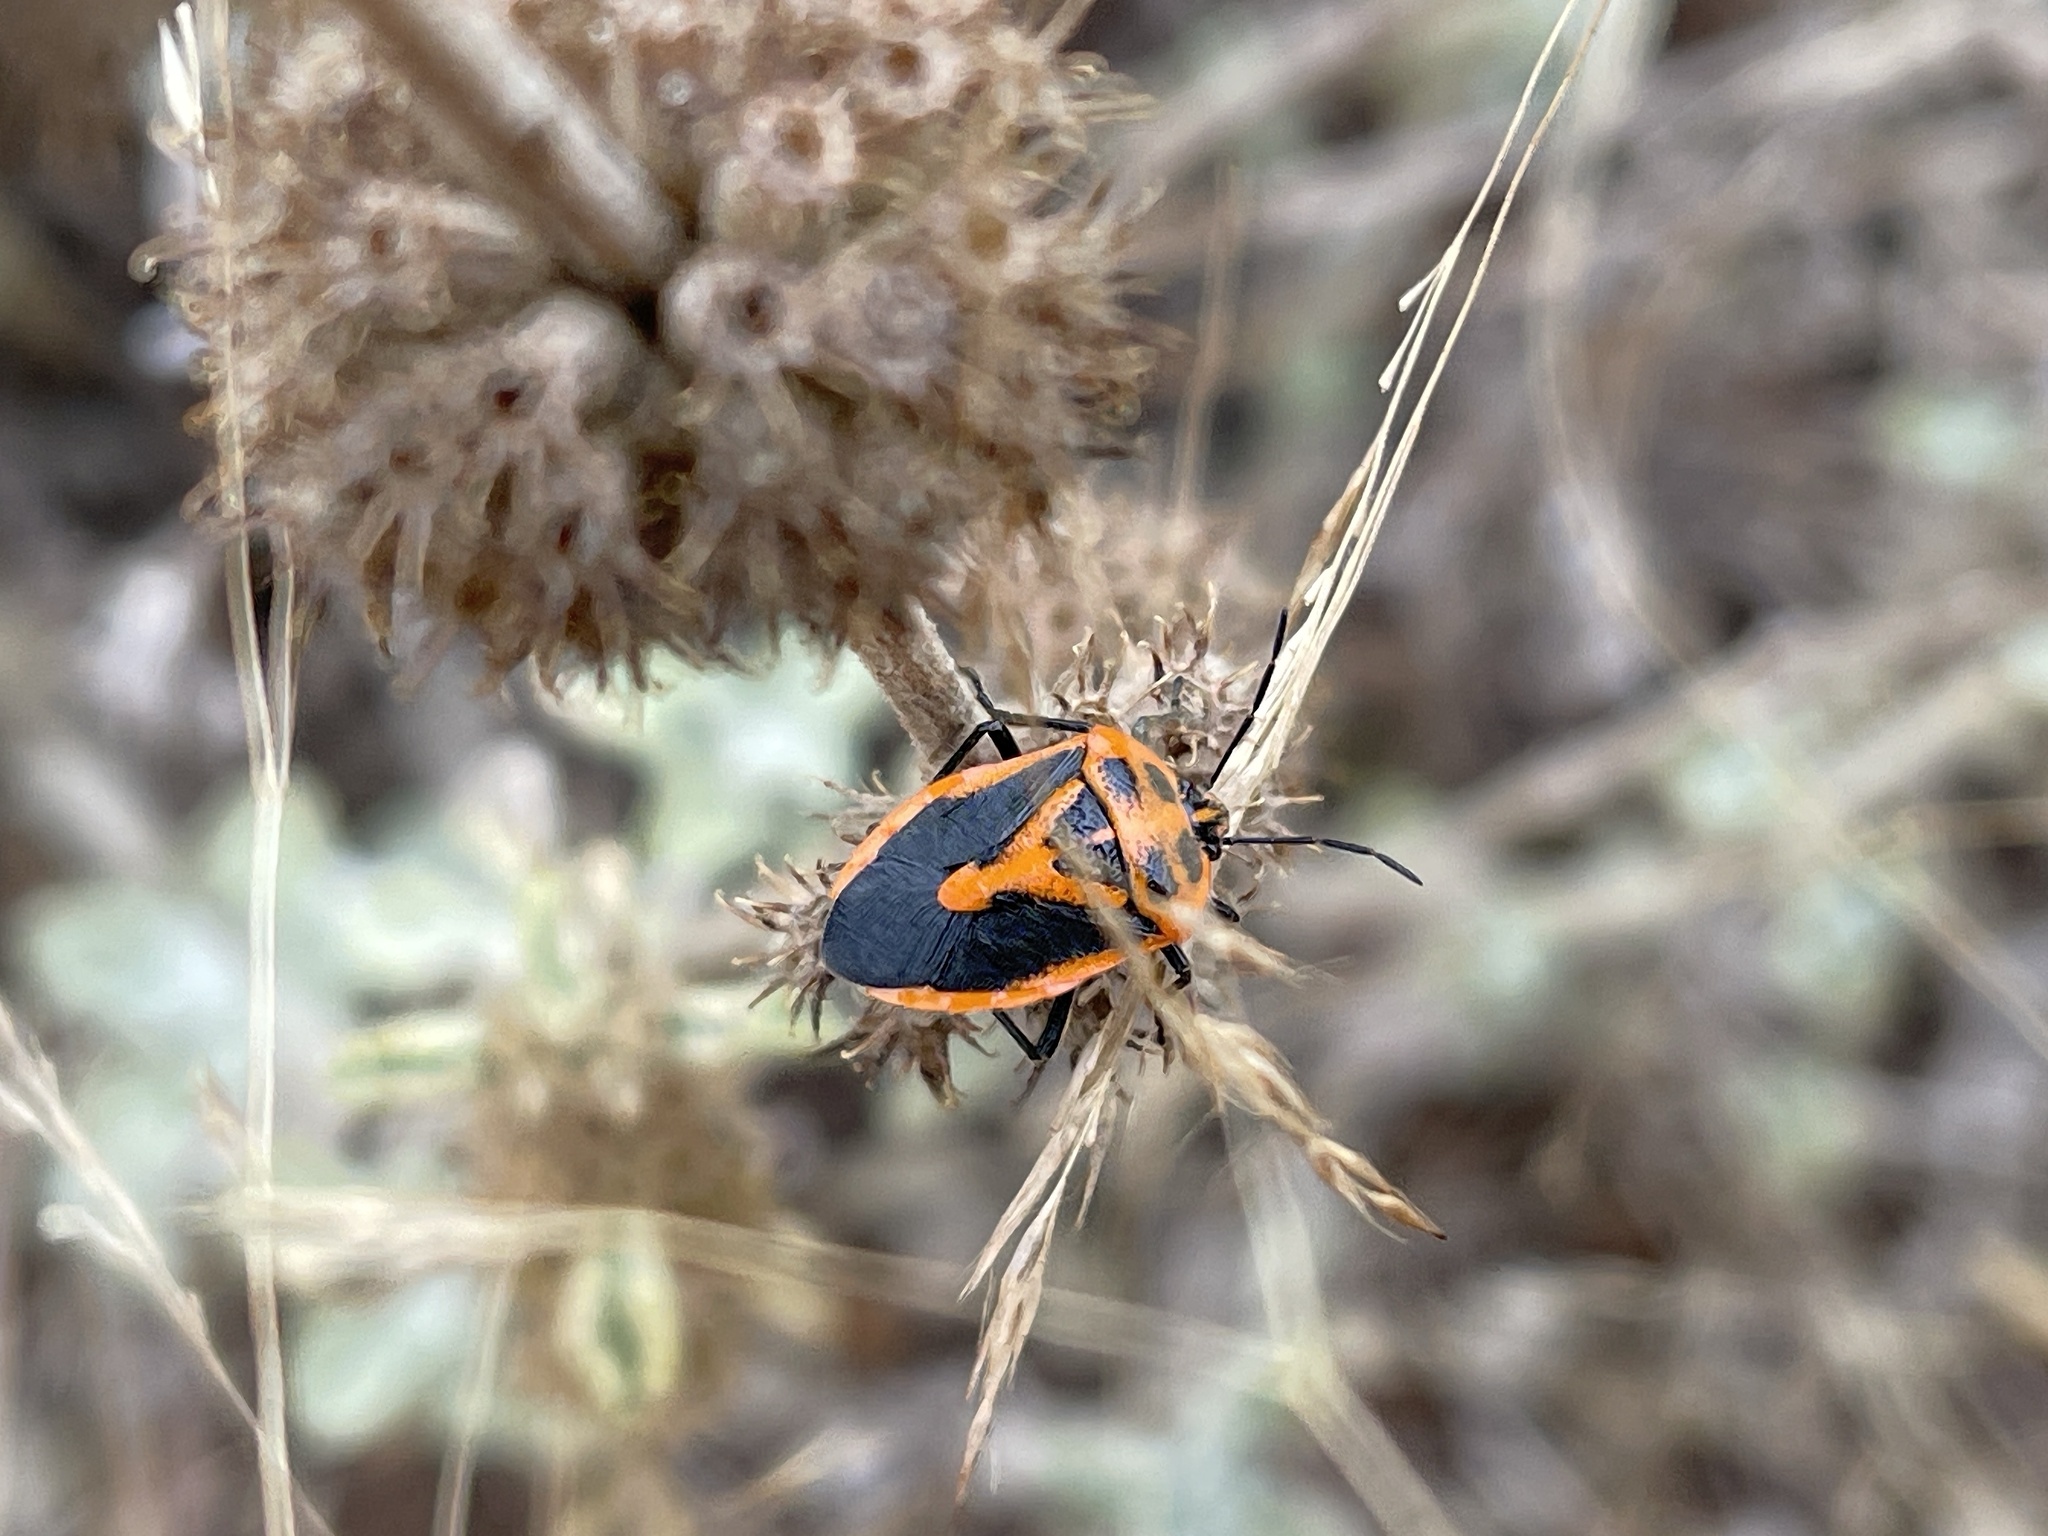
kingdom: Animalia
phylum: Arthropoda
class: Insecta
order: Hemiptera
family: Pentatomidae
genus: Agonoscelis
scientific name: Agonoscelis rutila
